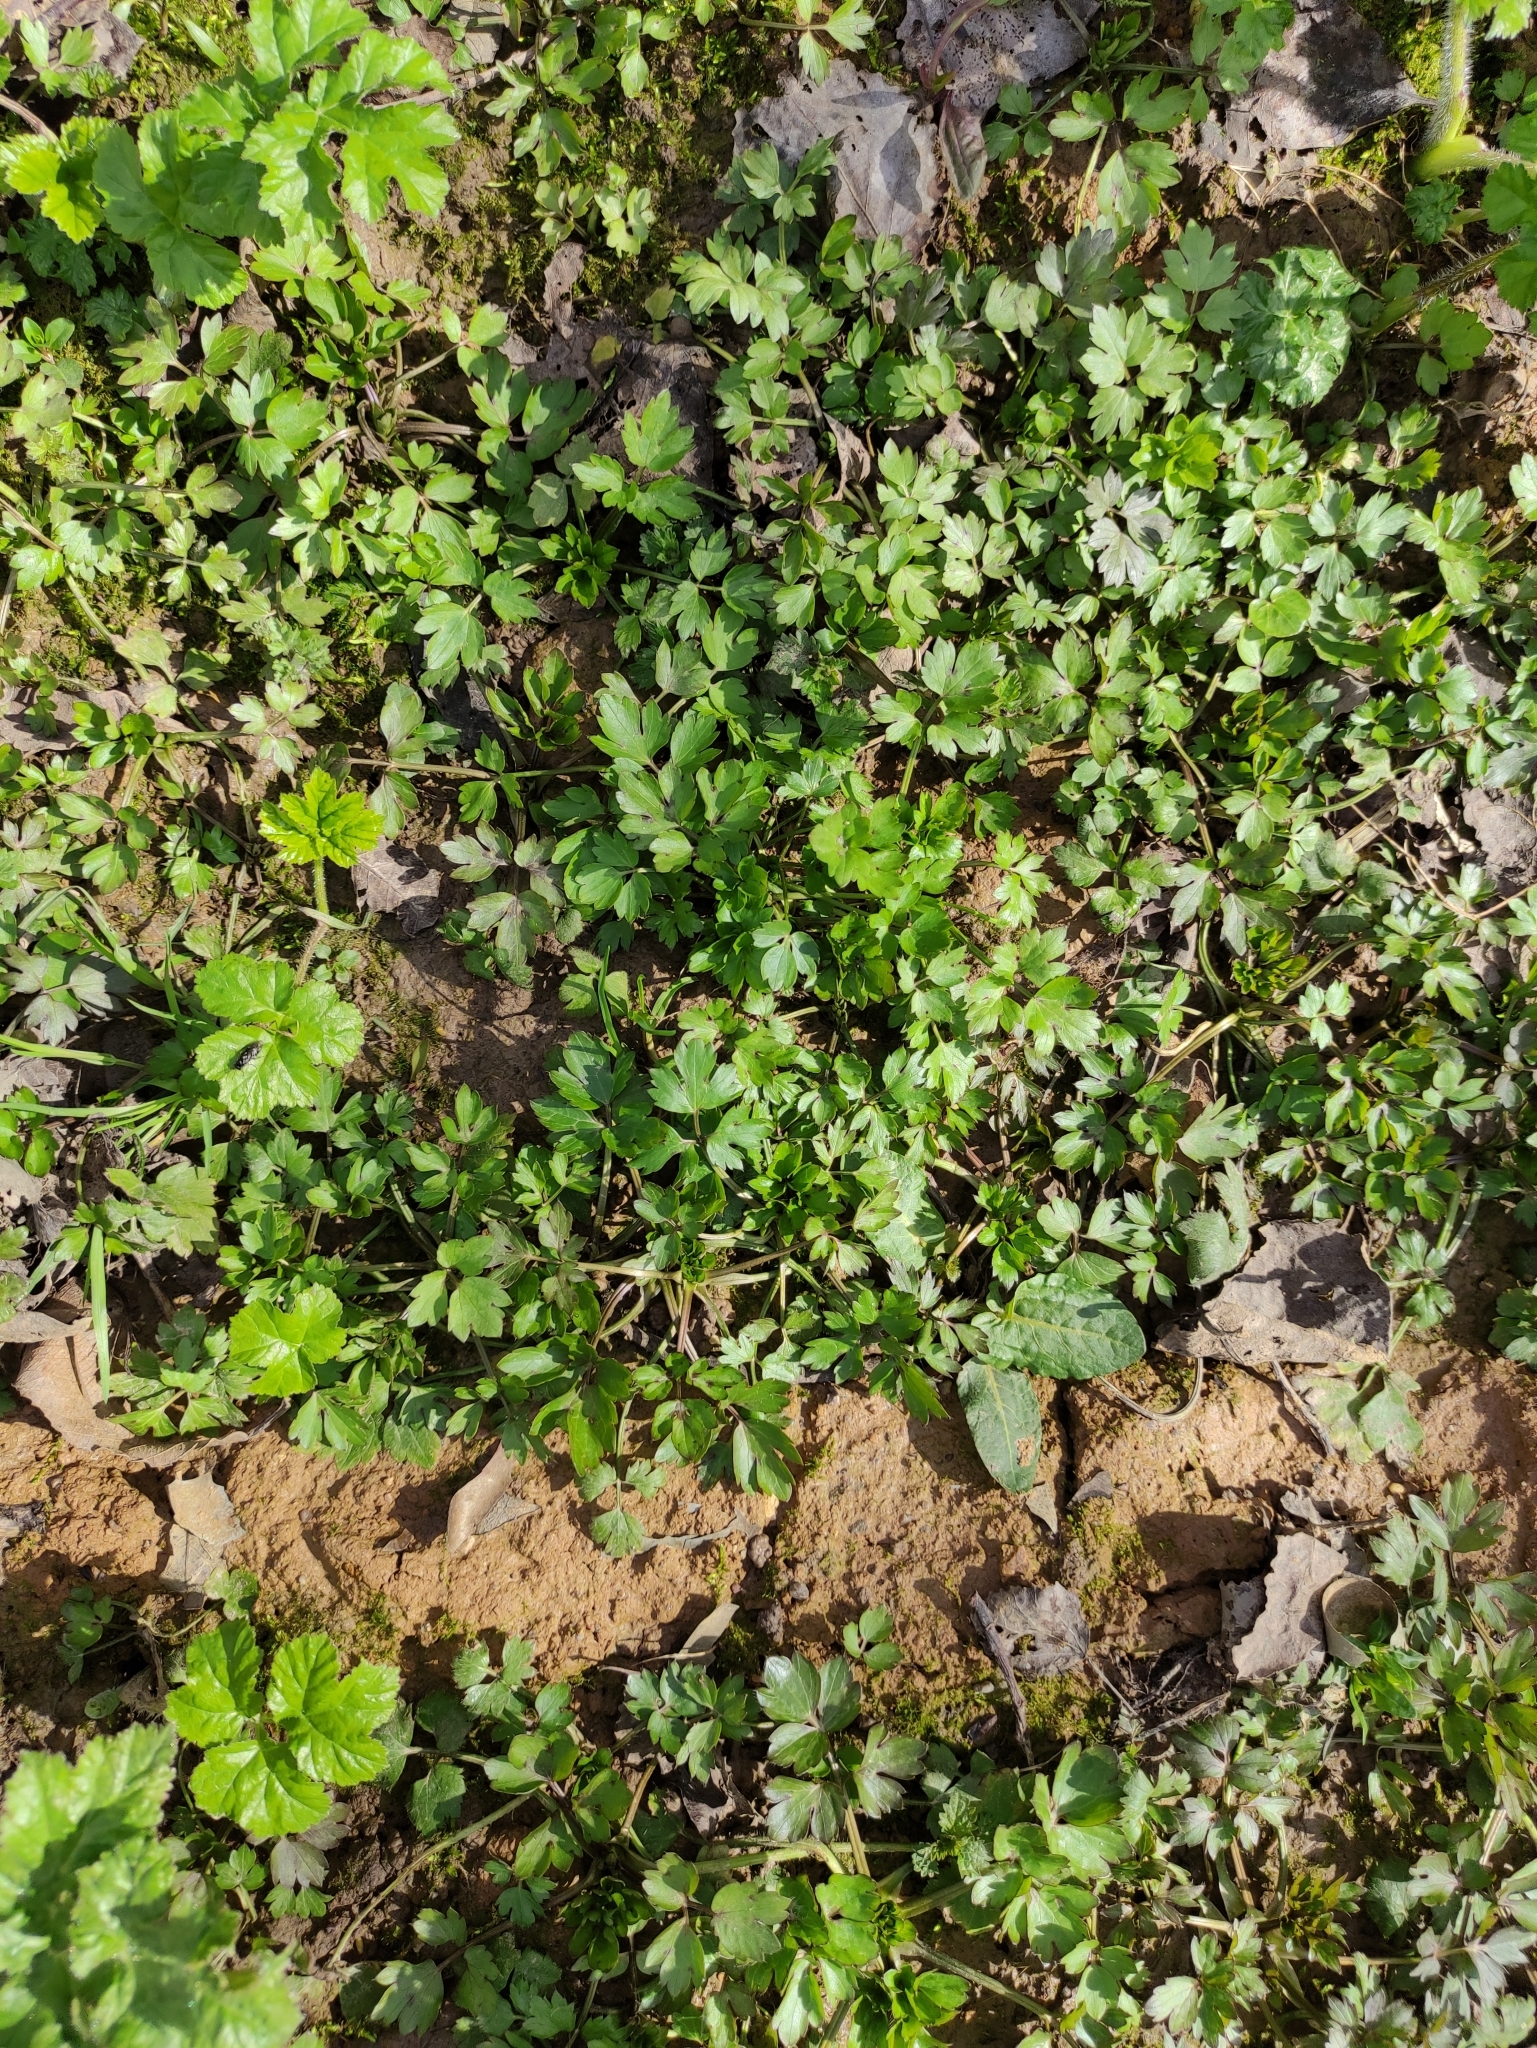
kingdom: Plantae
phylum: Tracheophyta
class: Magnoliopsida
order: Ranunculales
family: Ranunculaceae
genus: Ranunculus
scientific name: Ranunculus repens
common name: Creeping buttercup
